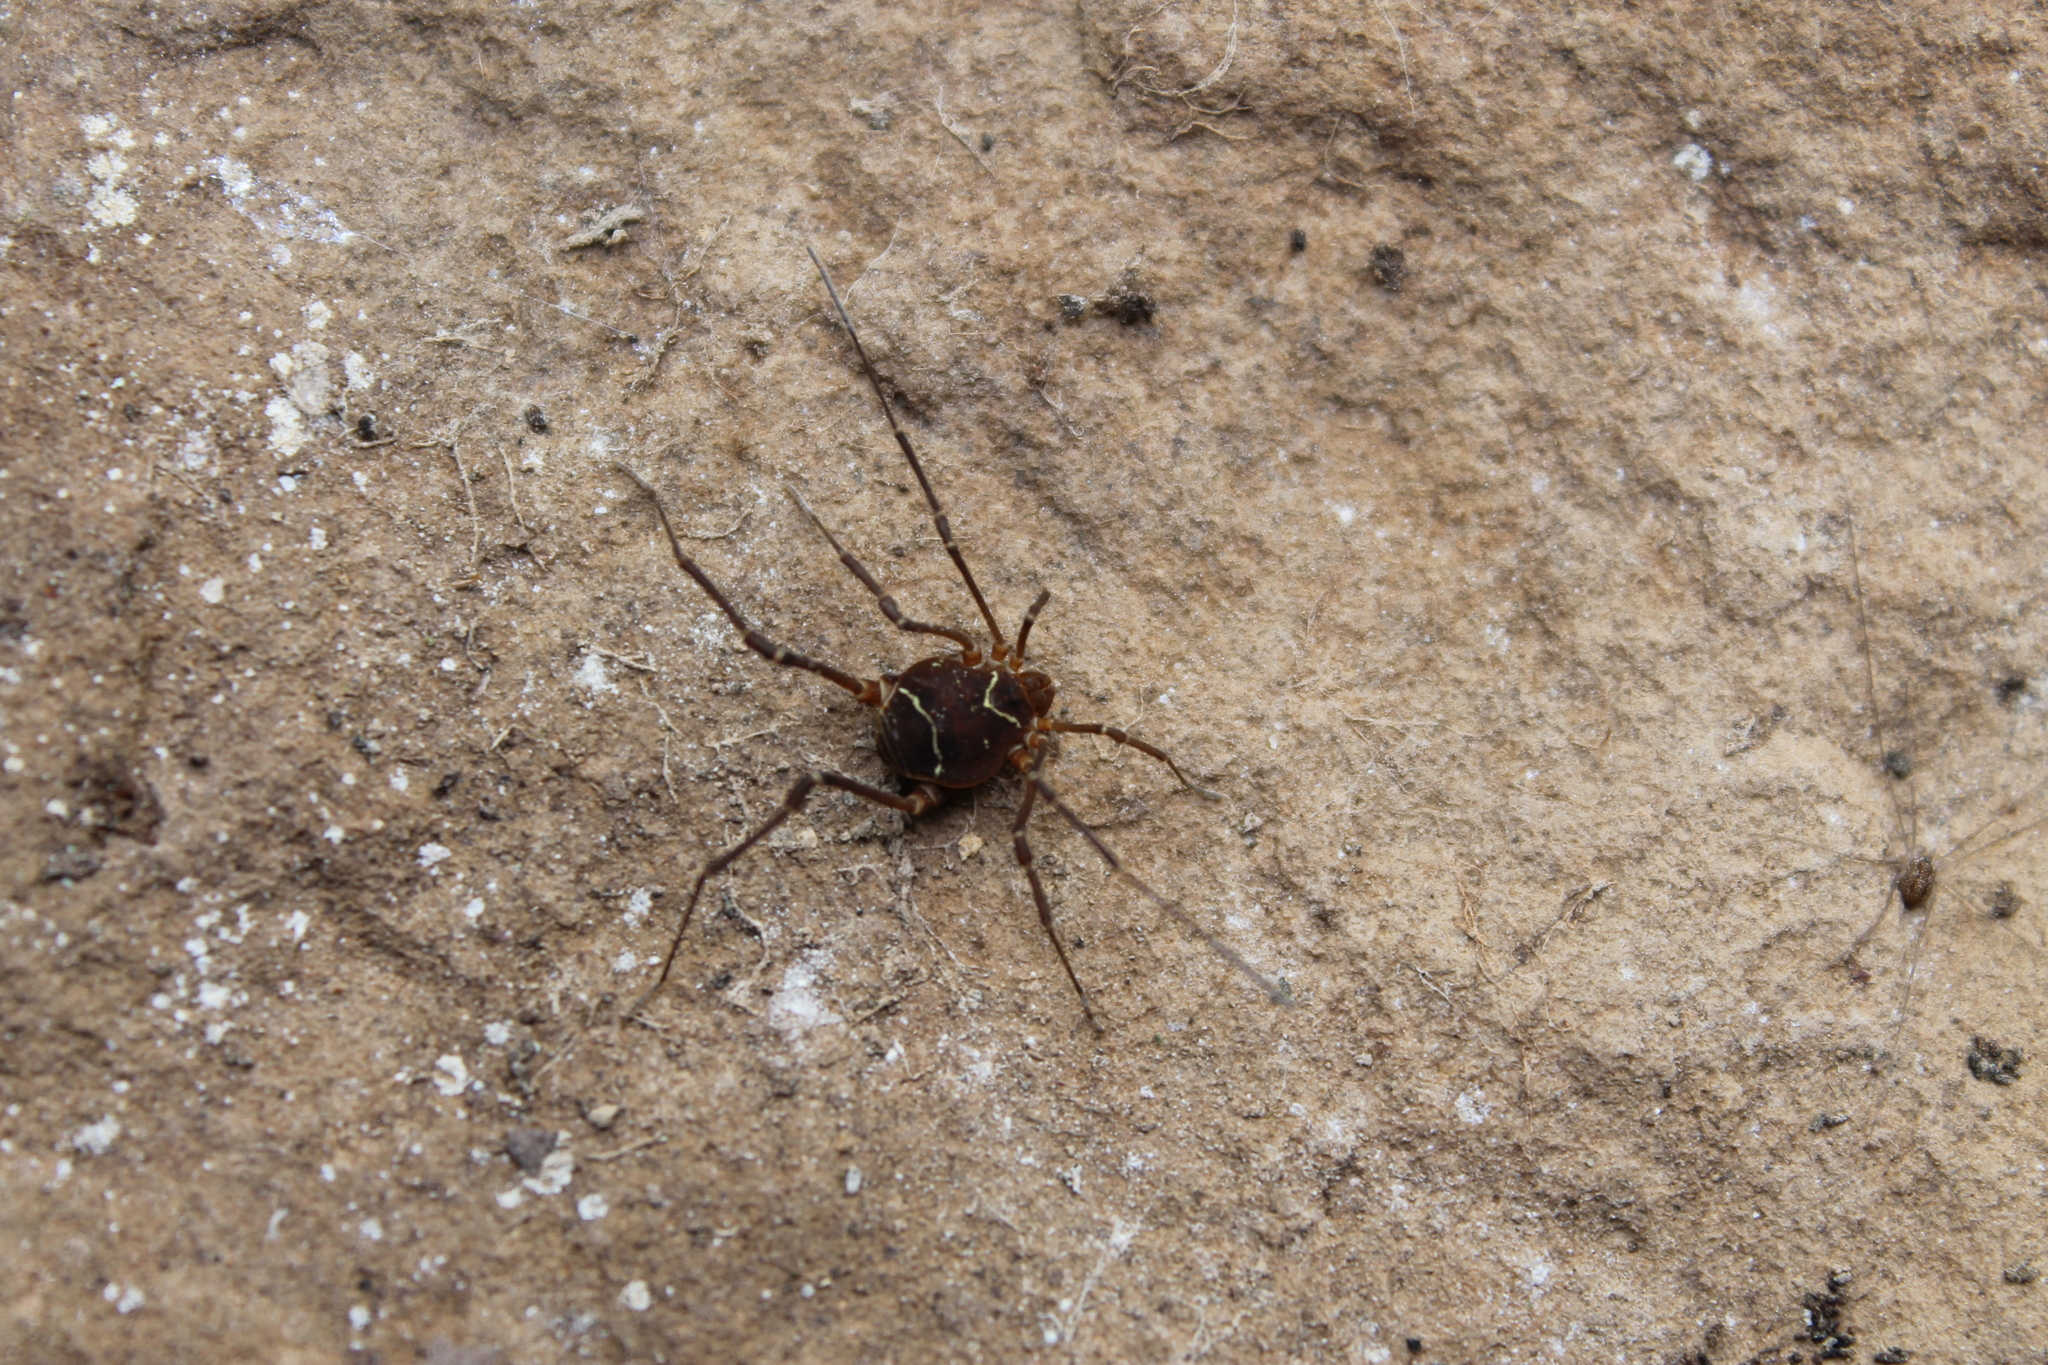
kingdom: Animalia
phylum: Arthropoda
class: Arachnida
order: Opiliones
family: Cosmetidae
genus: Libitioides
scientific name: Libitioides sayi
